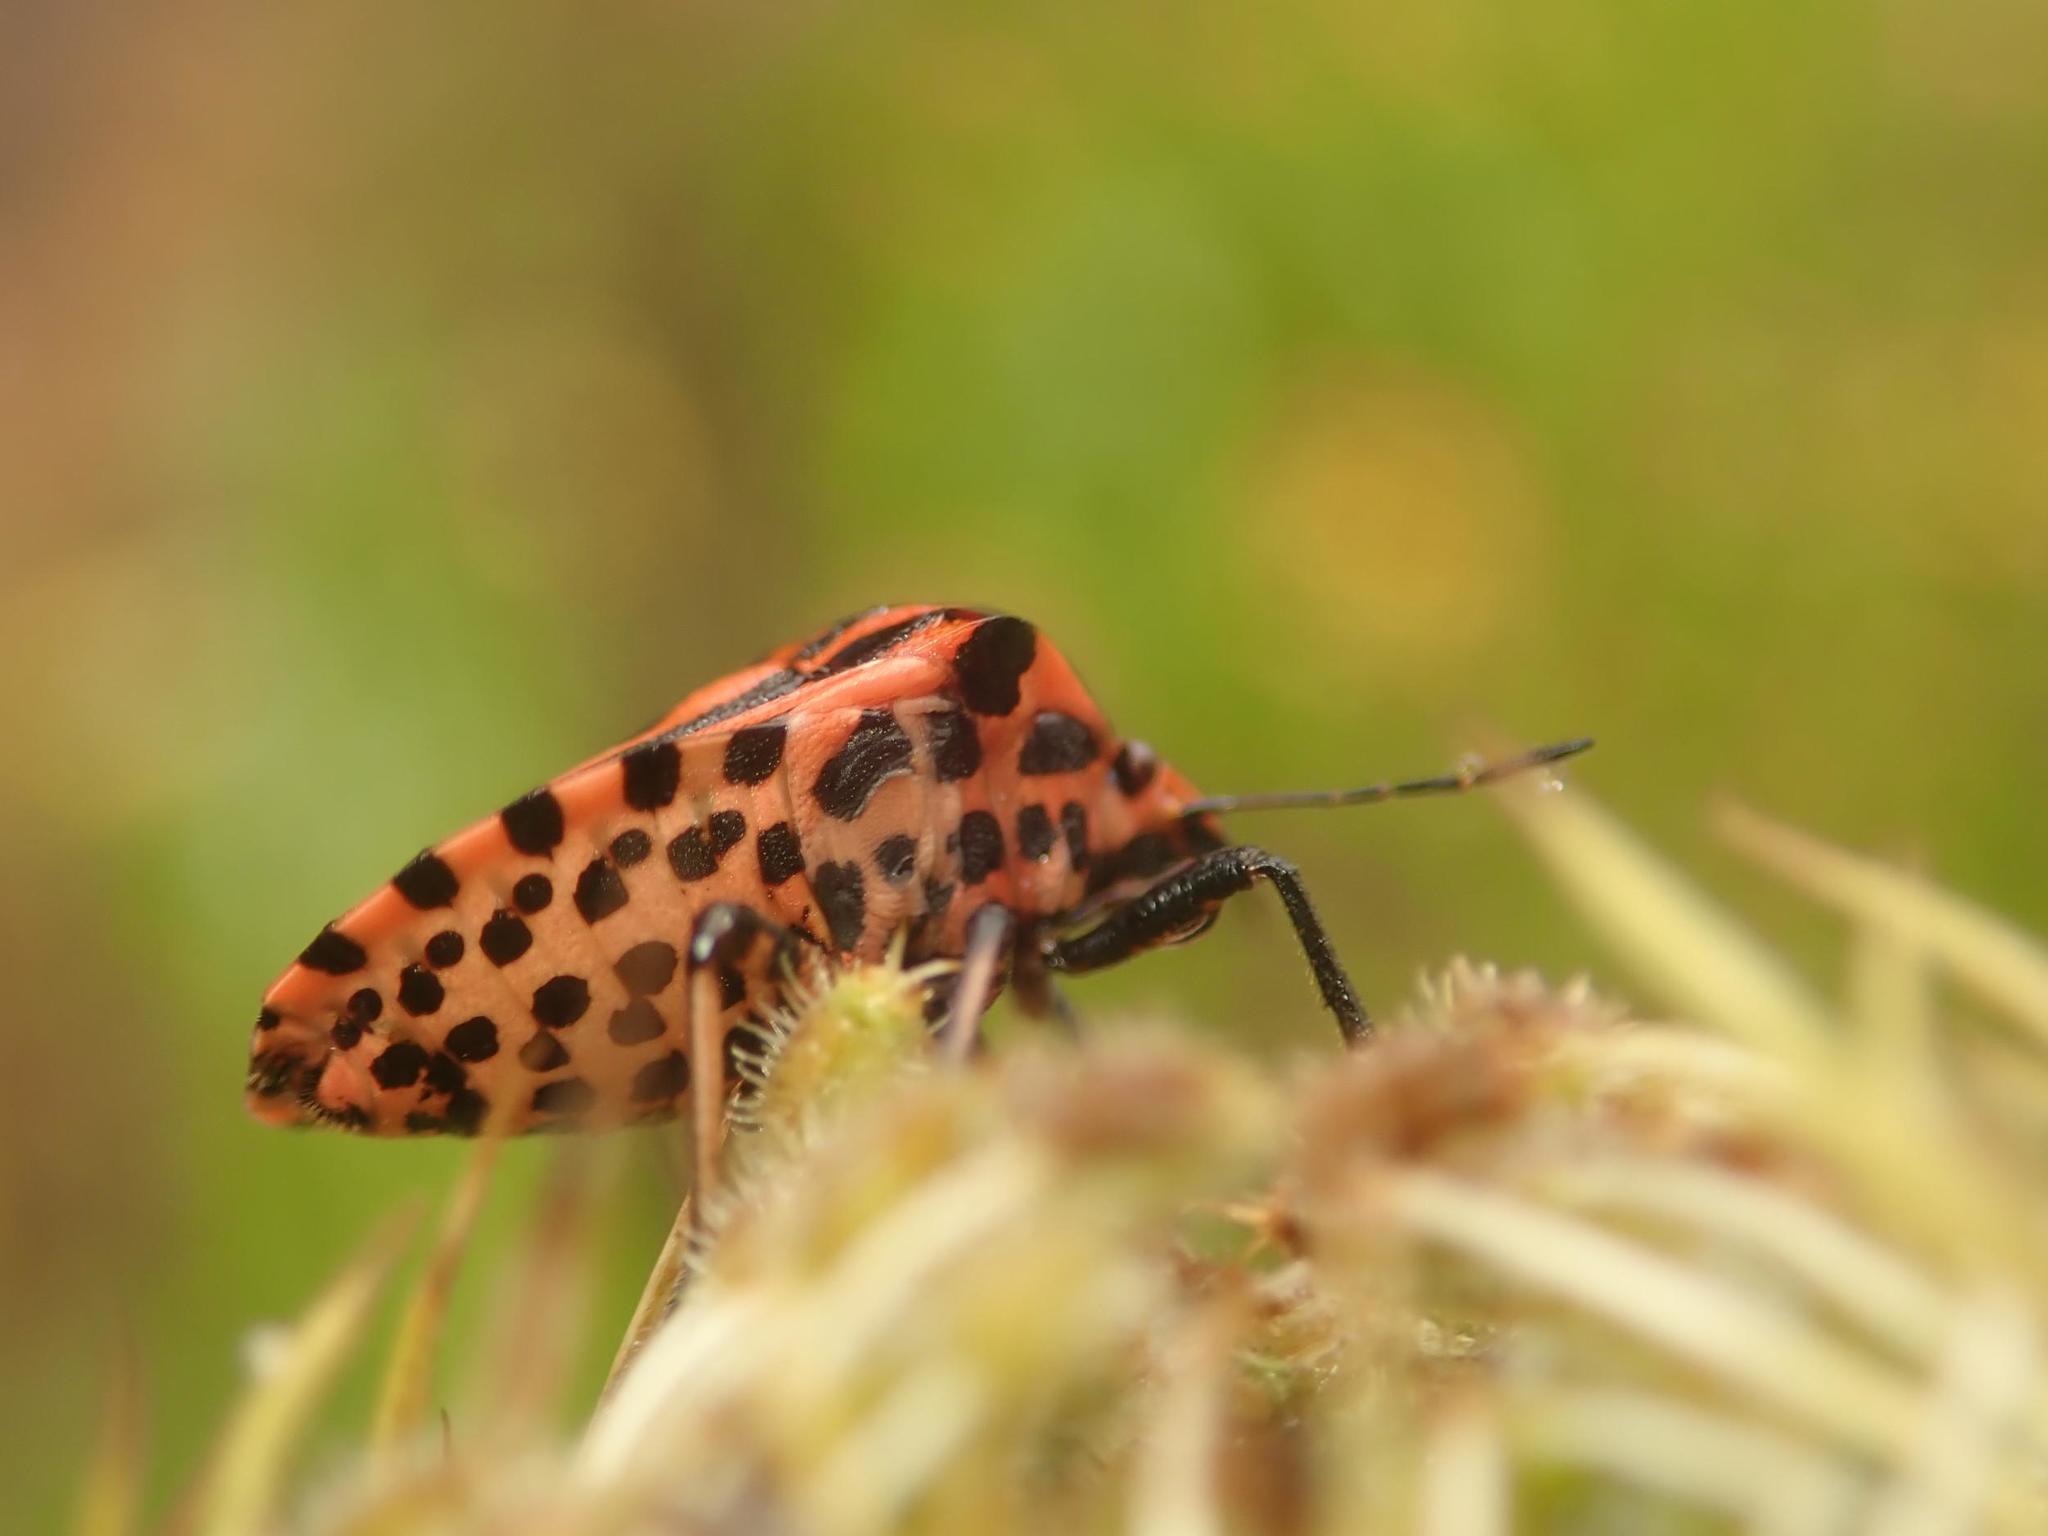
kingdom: Animalia
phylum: Arthropoda
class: Insecta
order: Hemiptera
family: Pentatomidae
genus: Graphosoma
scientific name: Graphosoma italicum
